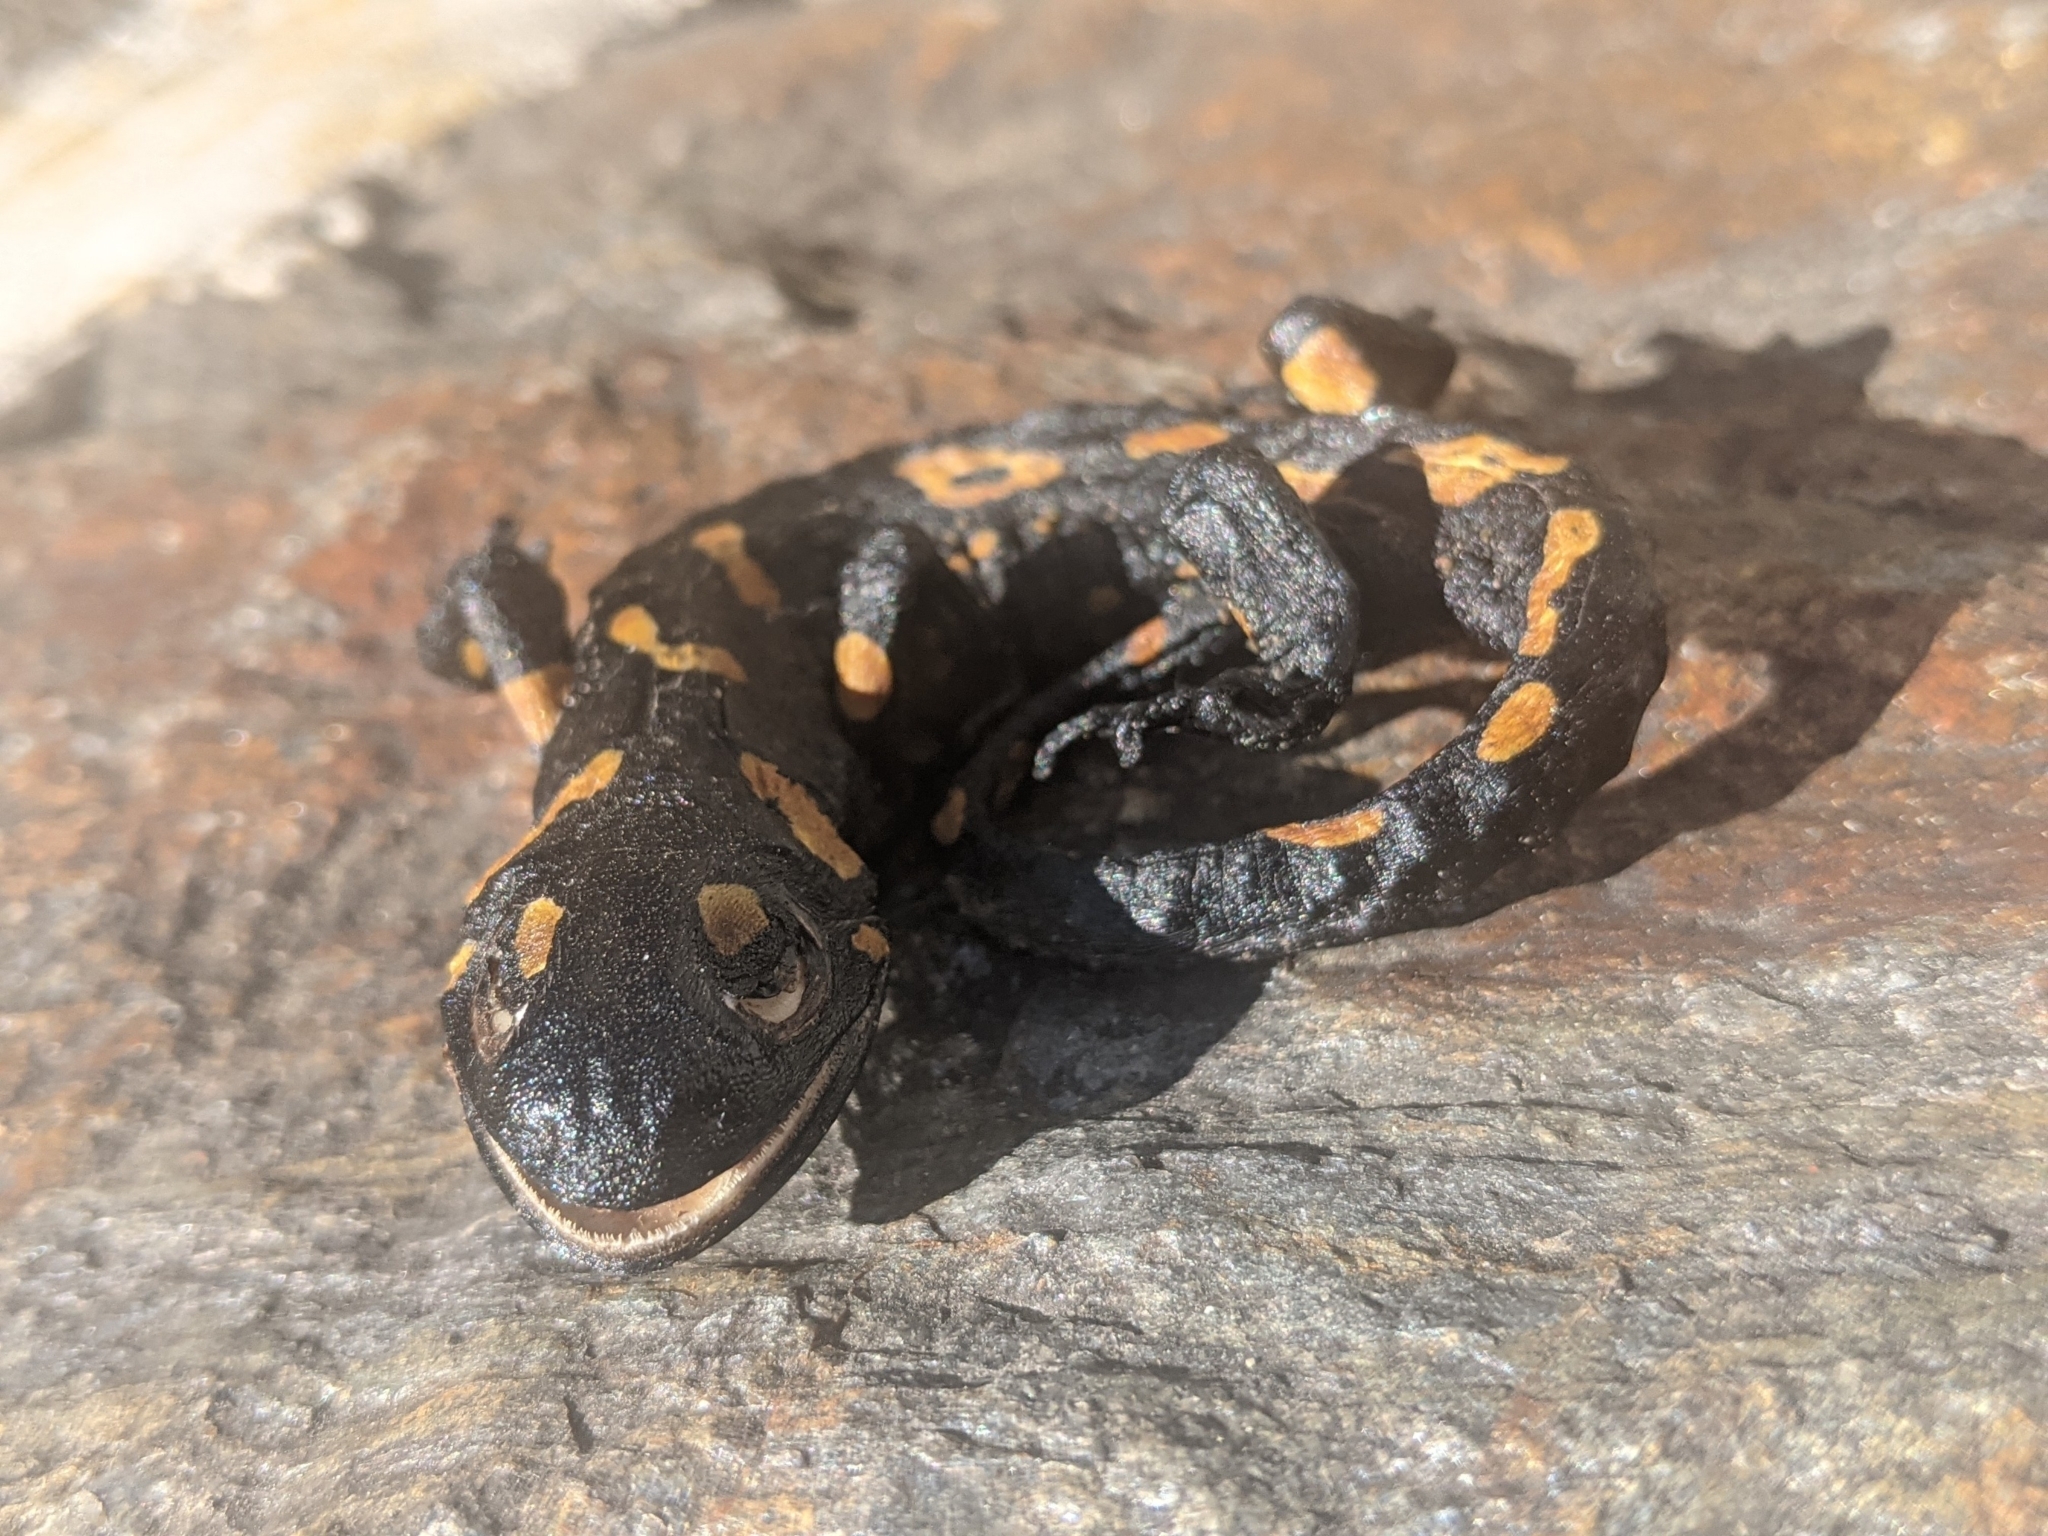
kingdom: Animalia
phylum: Chordata
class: Amphibia
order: Caudata
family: Salamandridae
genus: Salamandra
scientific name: Salamandra salamandra
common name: Fire salamander
